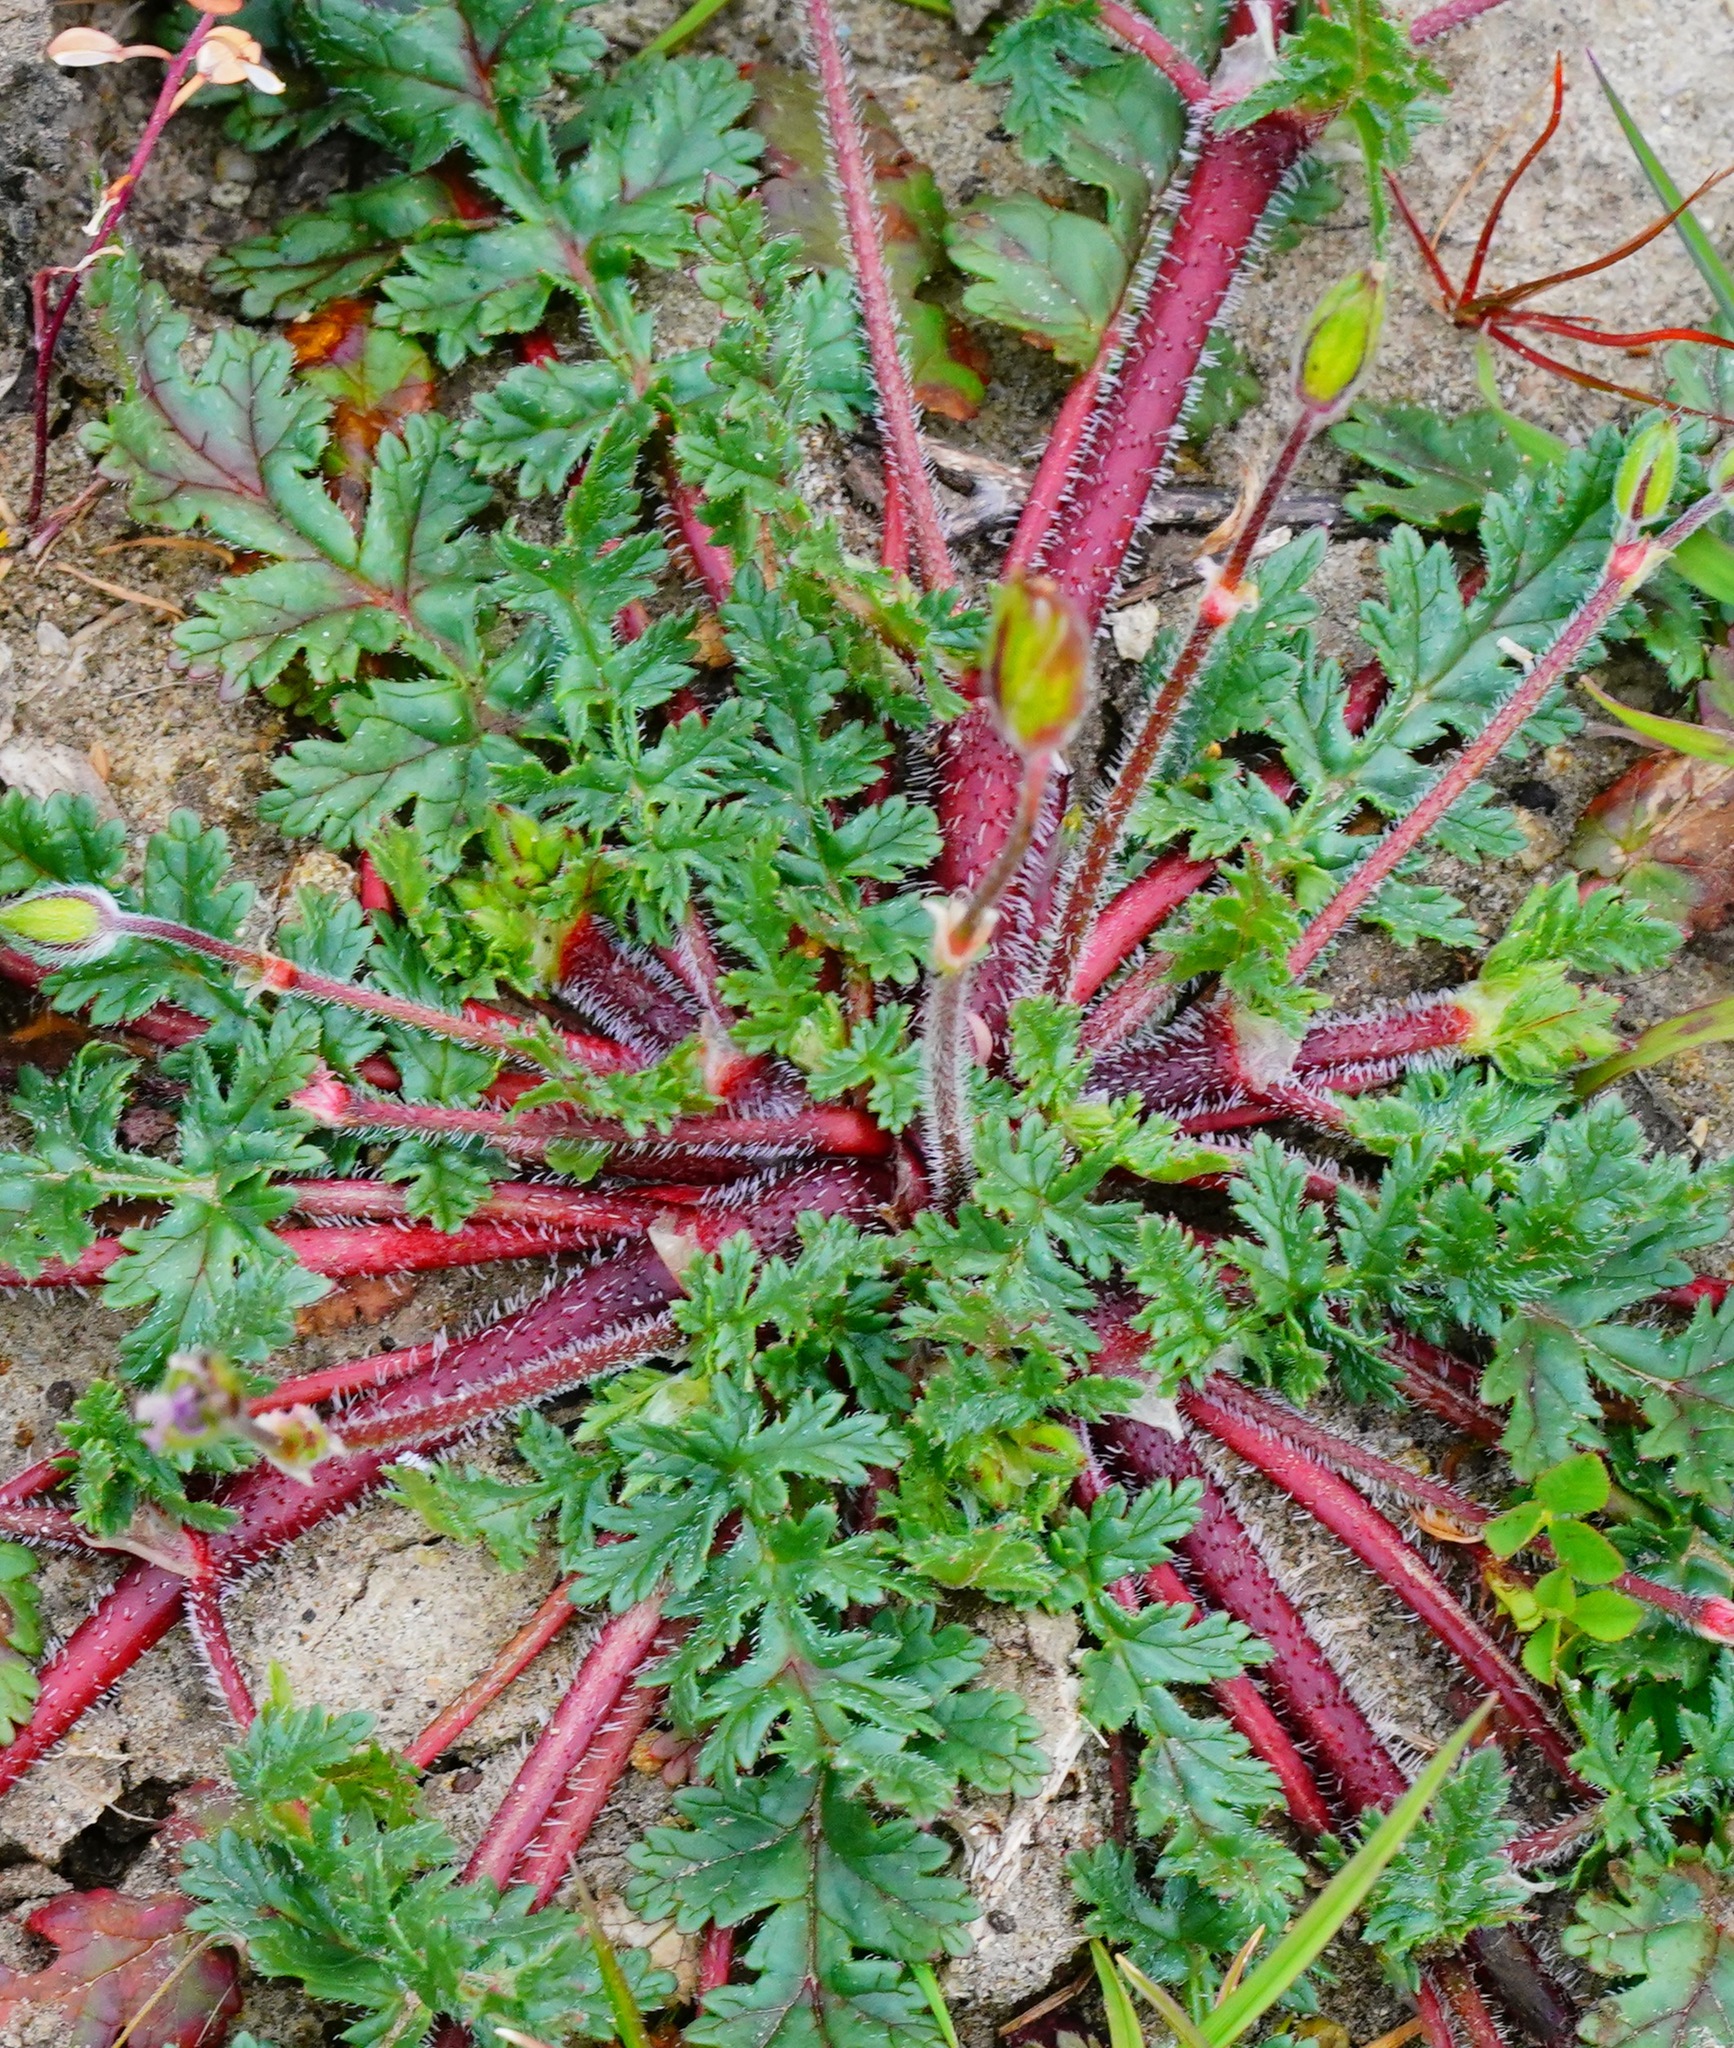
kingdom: Plantae
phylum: Tracheophyta
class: Magnoliopsida
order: Geraniales
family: Geraniaceae
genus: Erodium
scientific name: Erodium botrys
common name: Mediterranean stork's-bill
